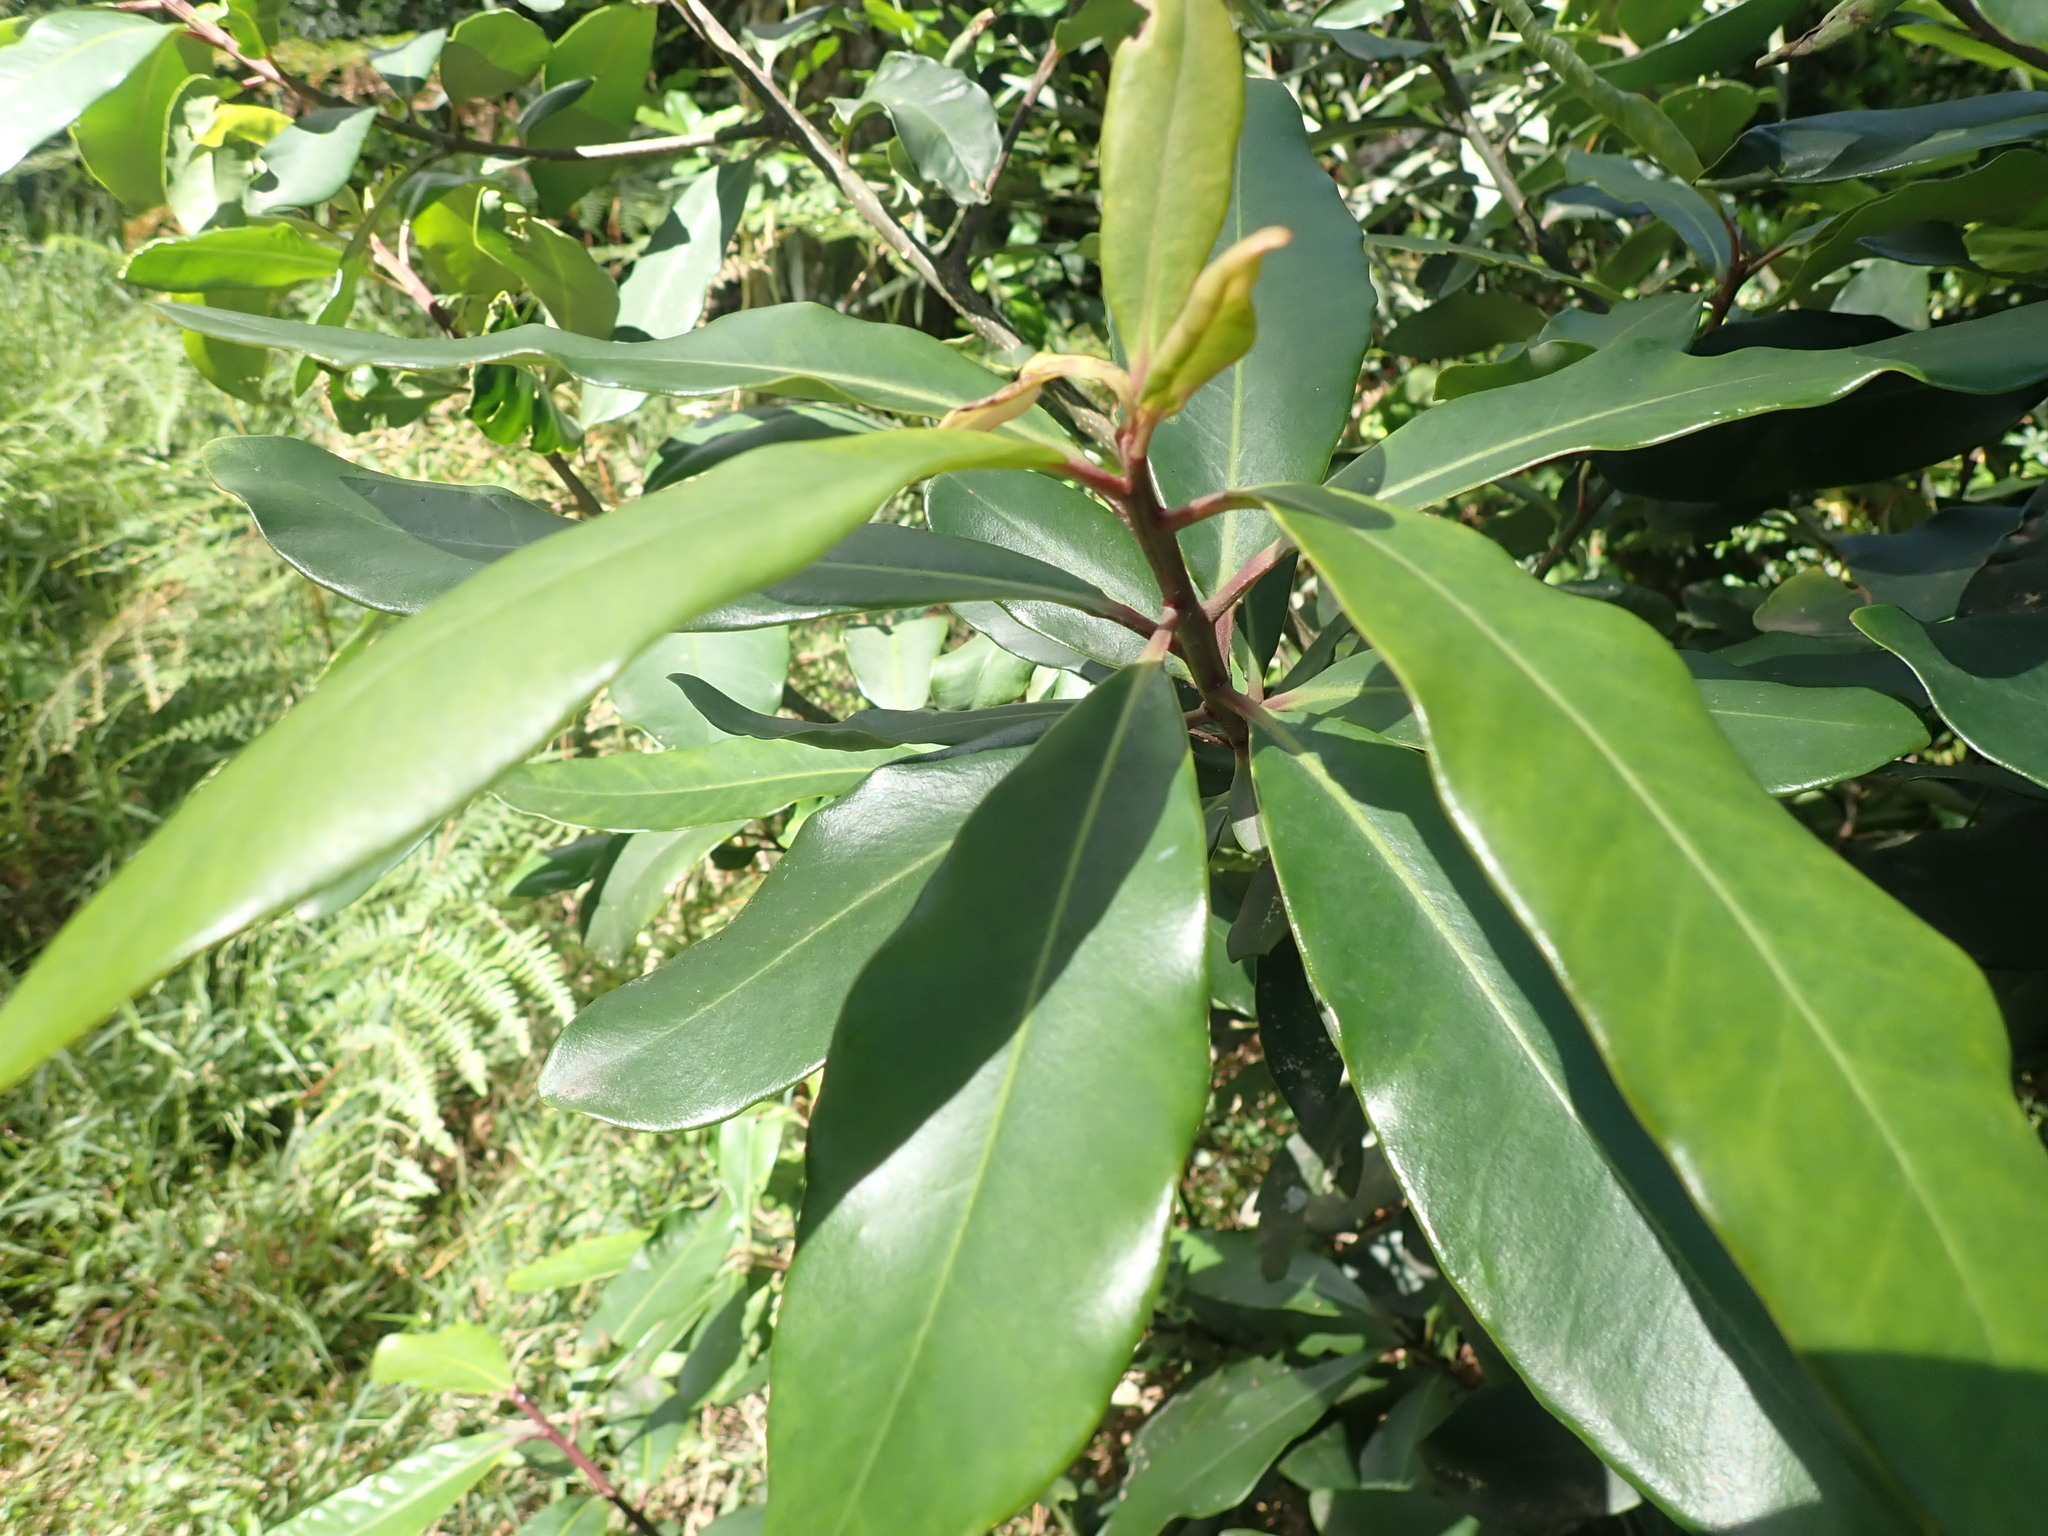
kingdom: Plantae
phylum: Tracheophyta
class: Magnoliopsida
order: Ericales
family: Primulaceae
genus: Myrsine
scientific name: Myrsine melanophloeos
